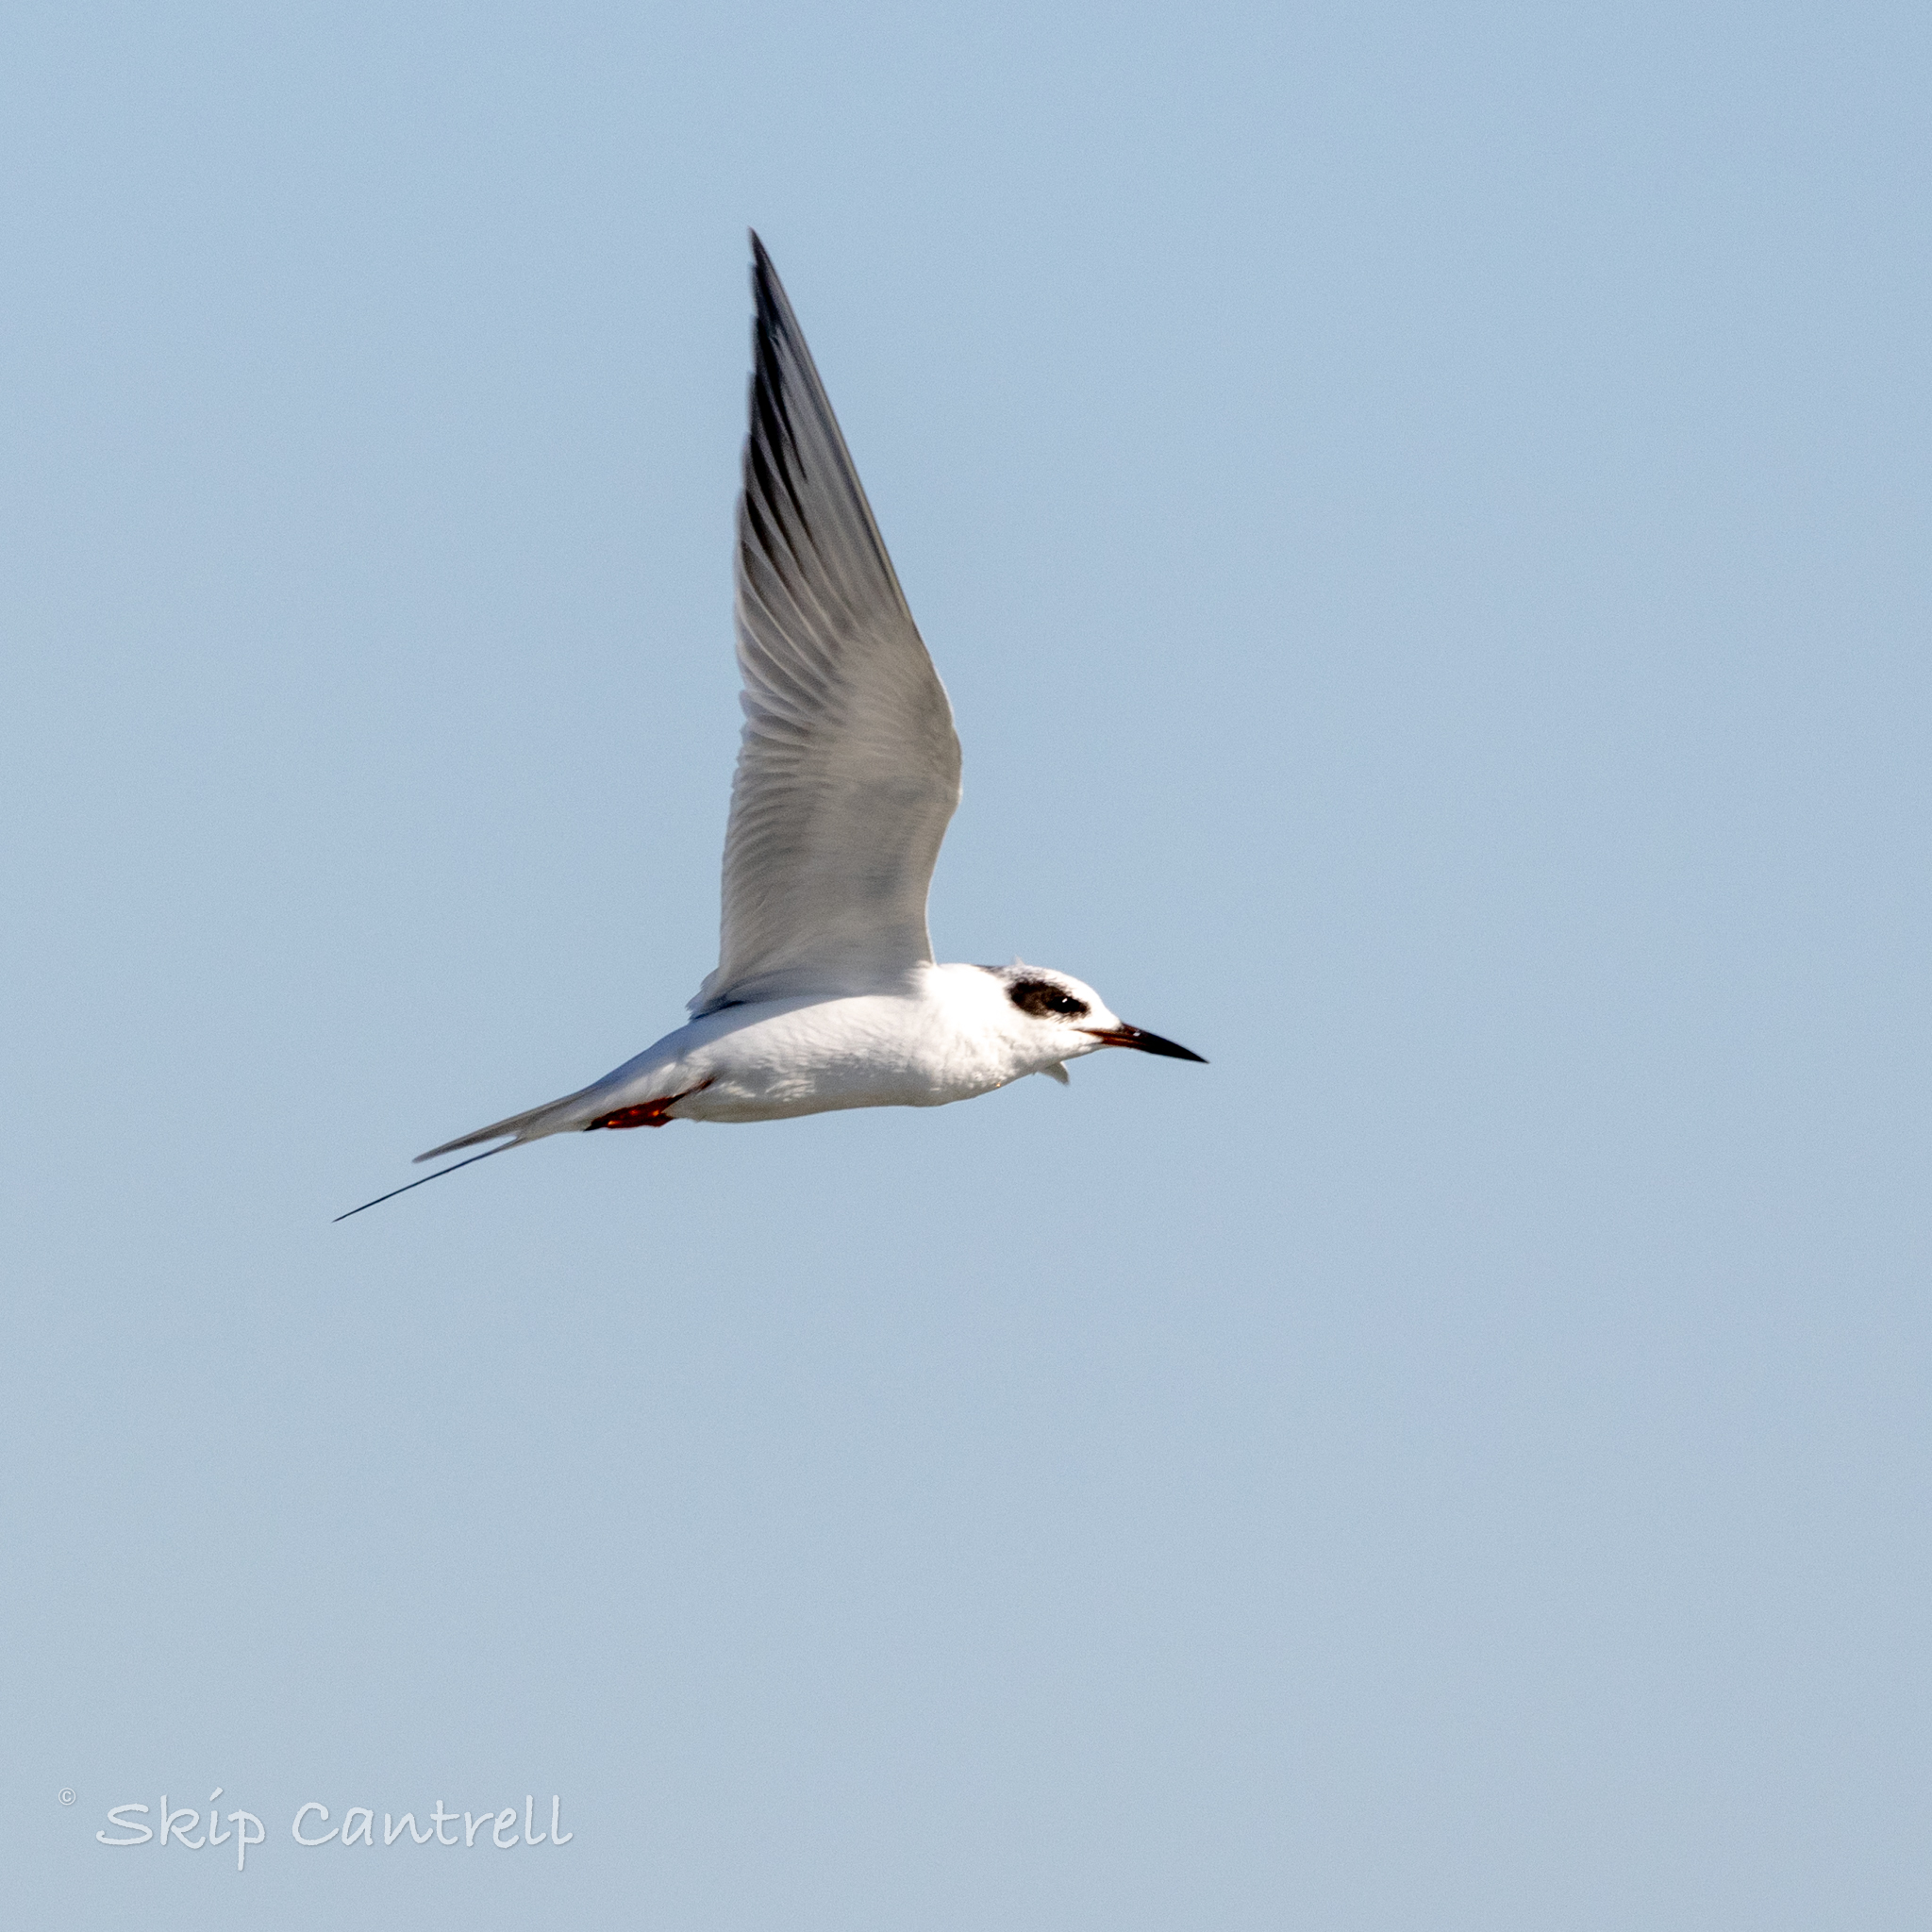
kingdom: Animalia
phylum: Chordata
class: Aves
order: Charadriiformes
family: Laridae
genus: Sterna
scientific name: Sterna forsteri
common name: Forster's tern
